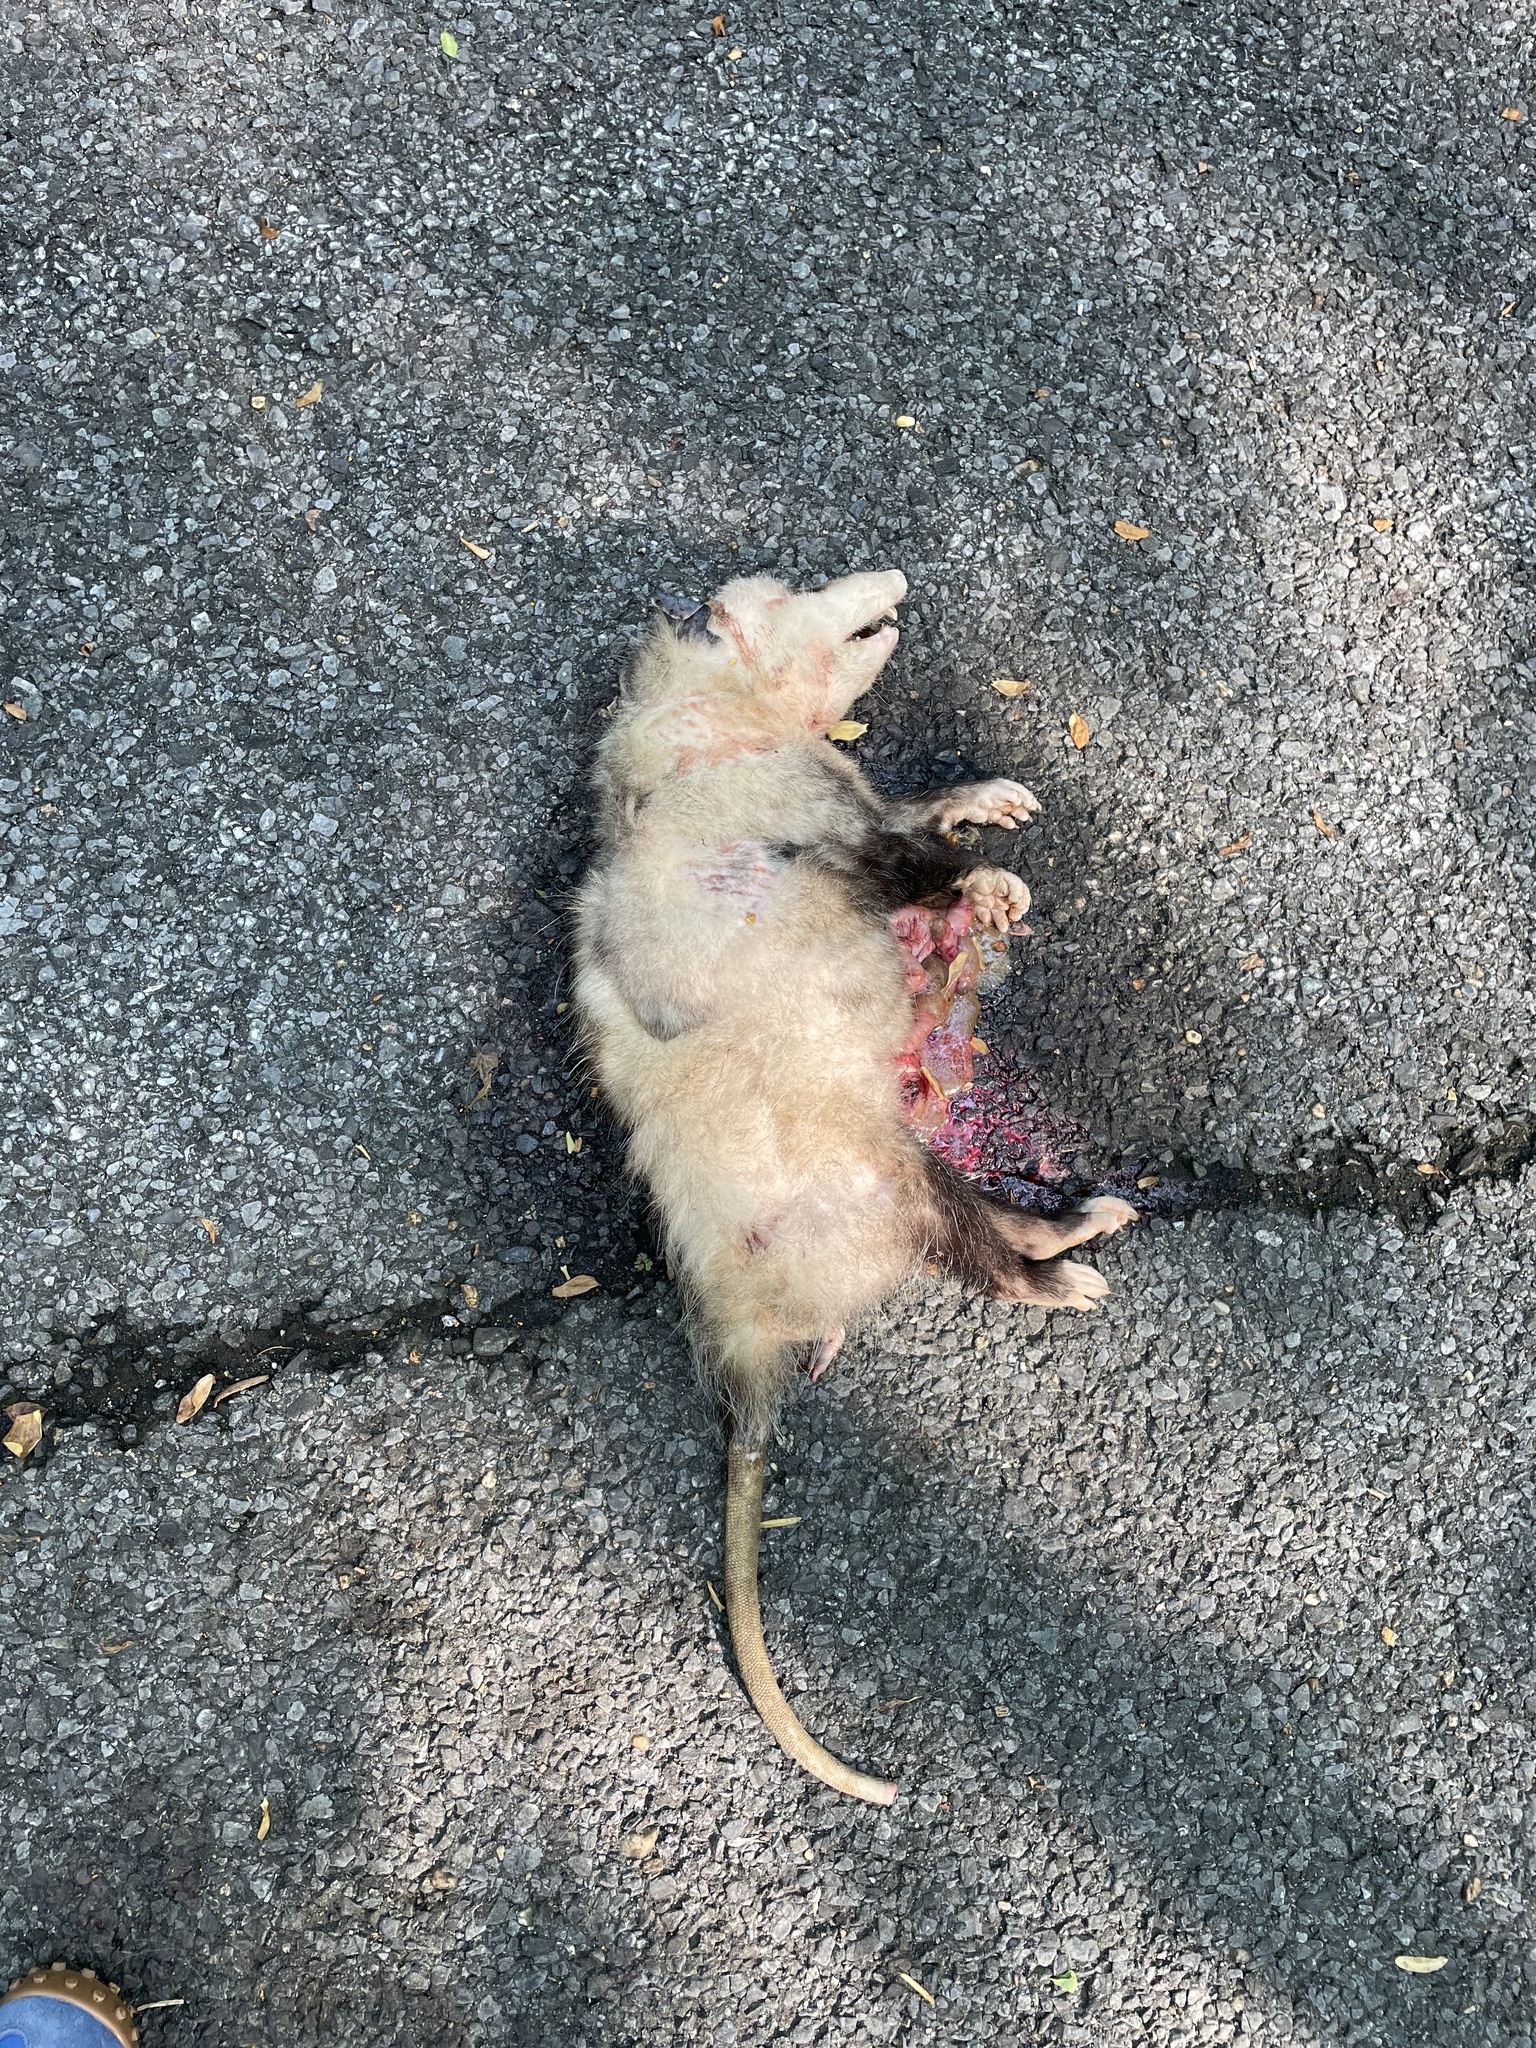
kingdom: Animalia
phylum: Chordata
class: Mammalia
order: Didelphimorphia
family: Didelphidae
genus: Didelphis
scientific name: Didelphis virginiana
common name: Virginia opossum
